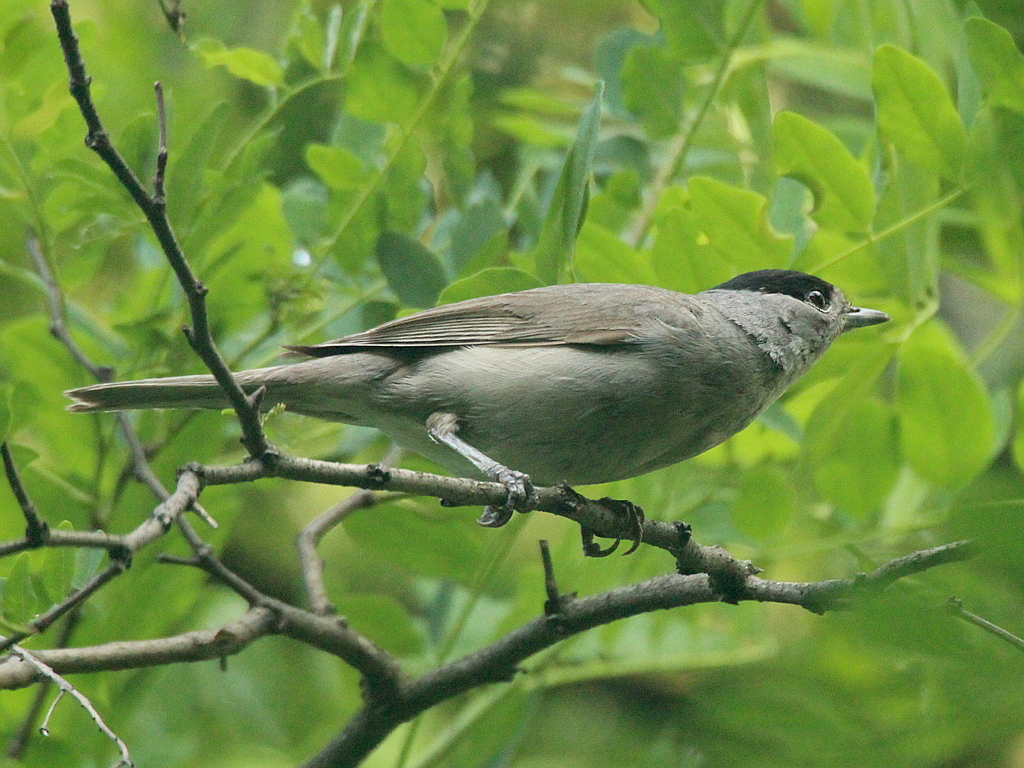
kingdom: Animalia
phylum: Chordata
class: Aves
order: Passeriformes
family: Sylviidae
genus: Sylvia
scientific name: Sylvia atricapilla
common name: Eurasian blackcap
